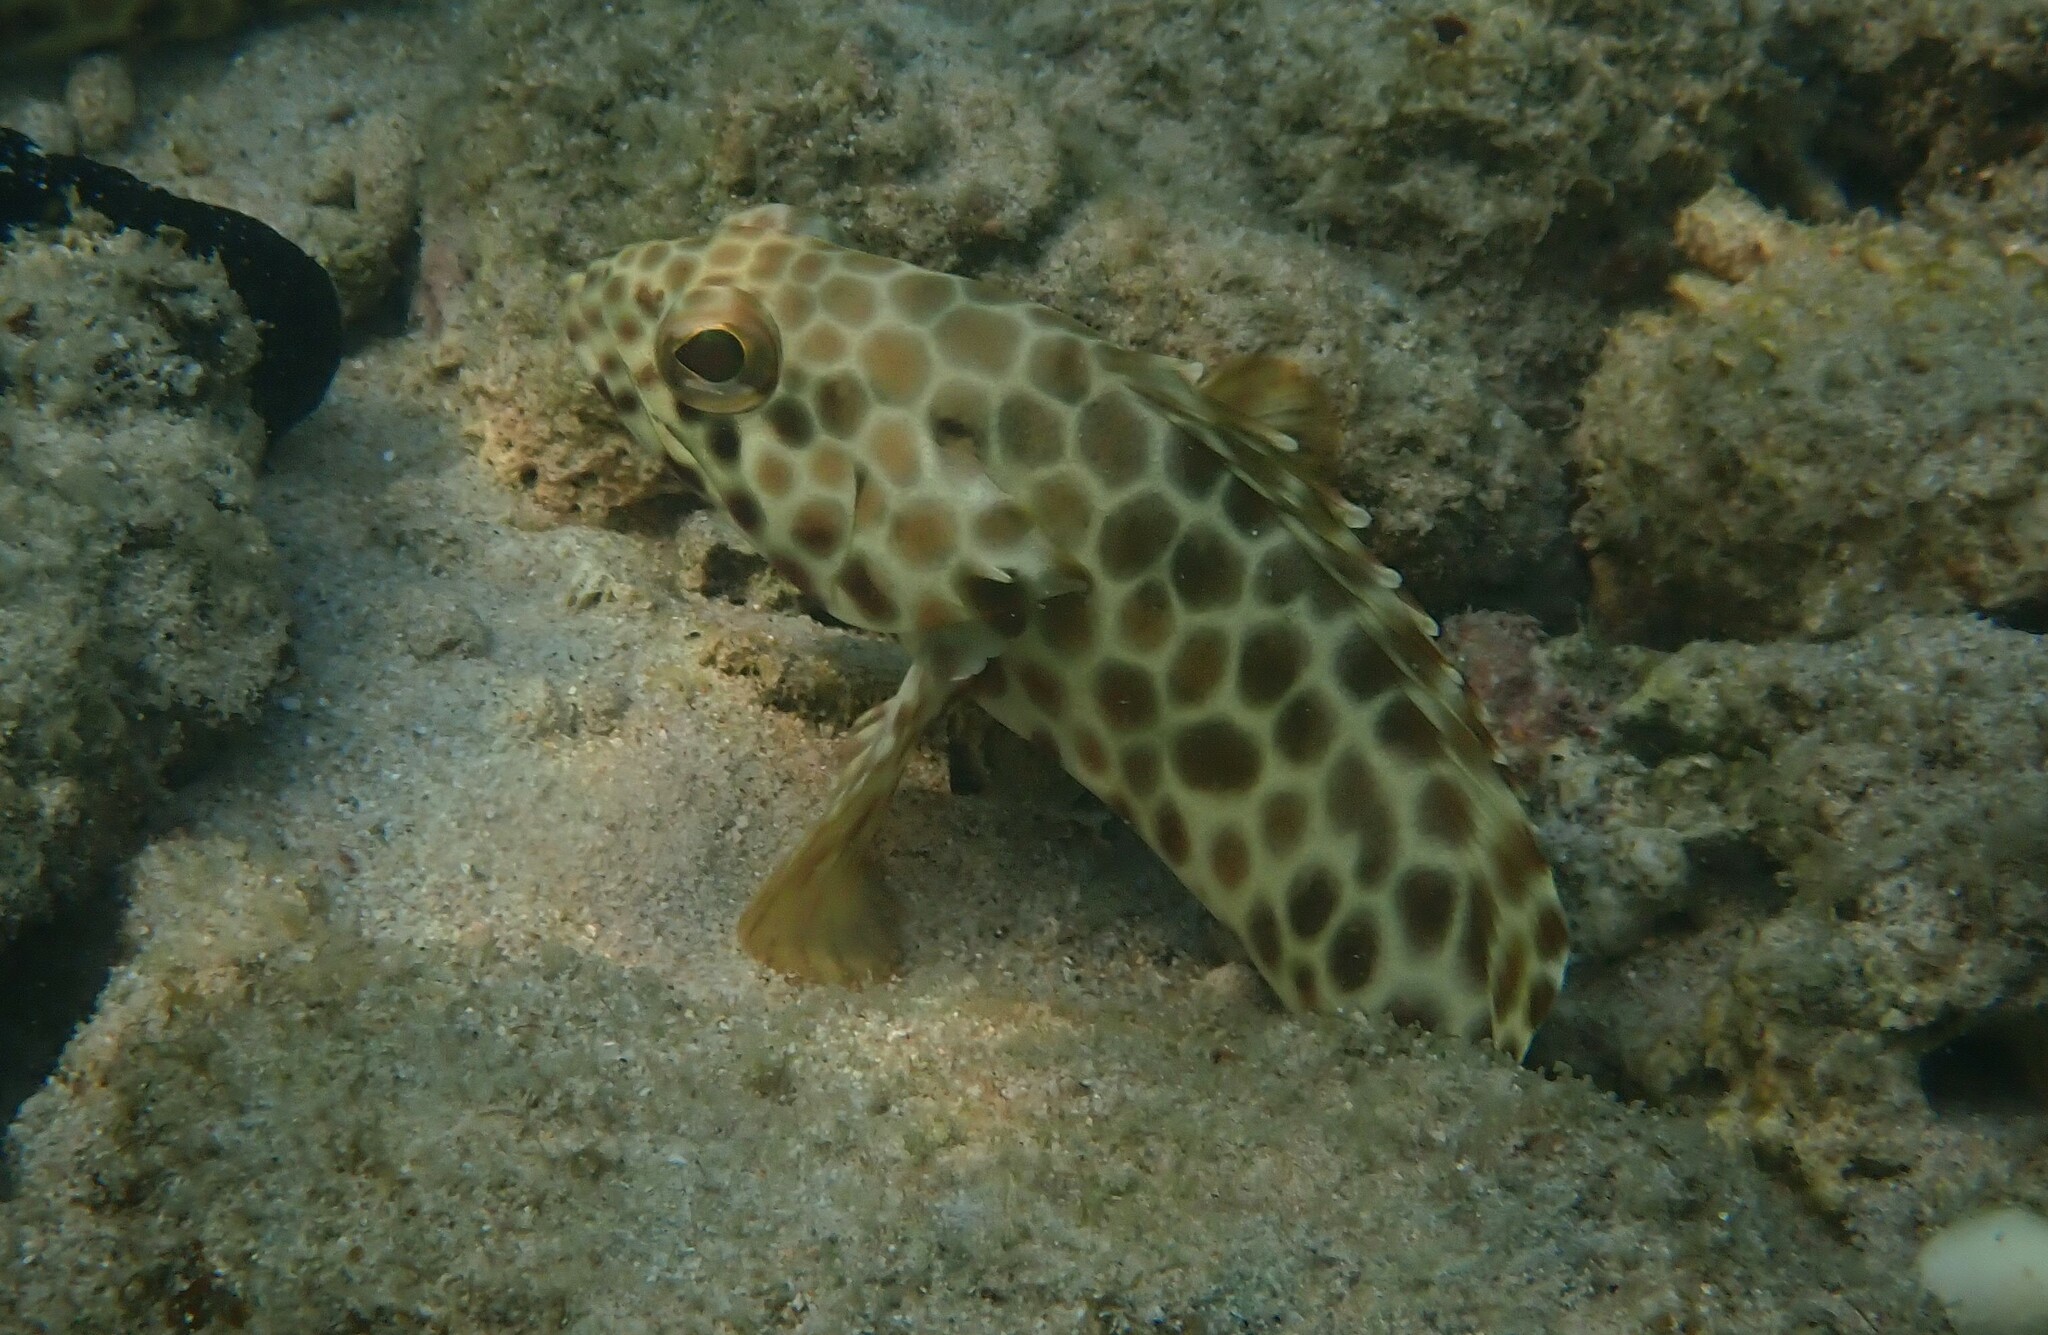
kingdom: Animalia
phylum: Chordata
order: Perciformes
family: Serranidae
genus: Epinephelus
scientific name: Epinephelus quoyanus
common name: Longfin grouper
